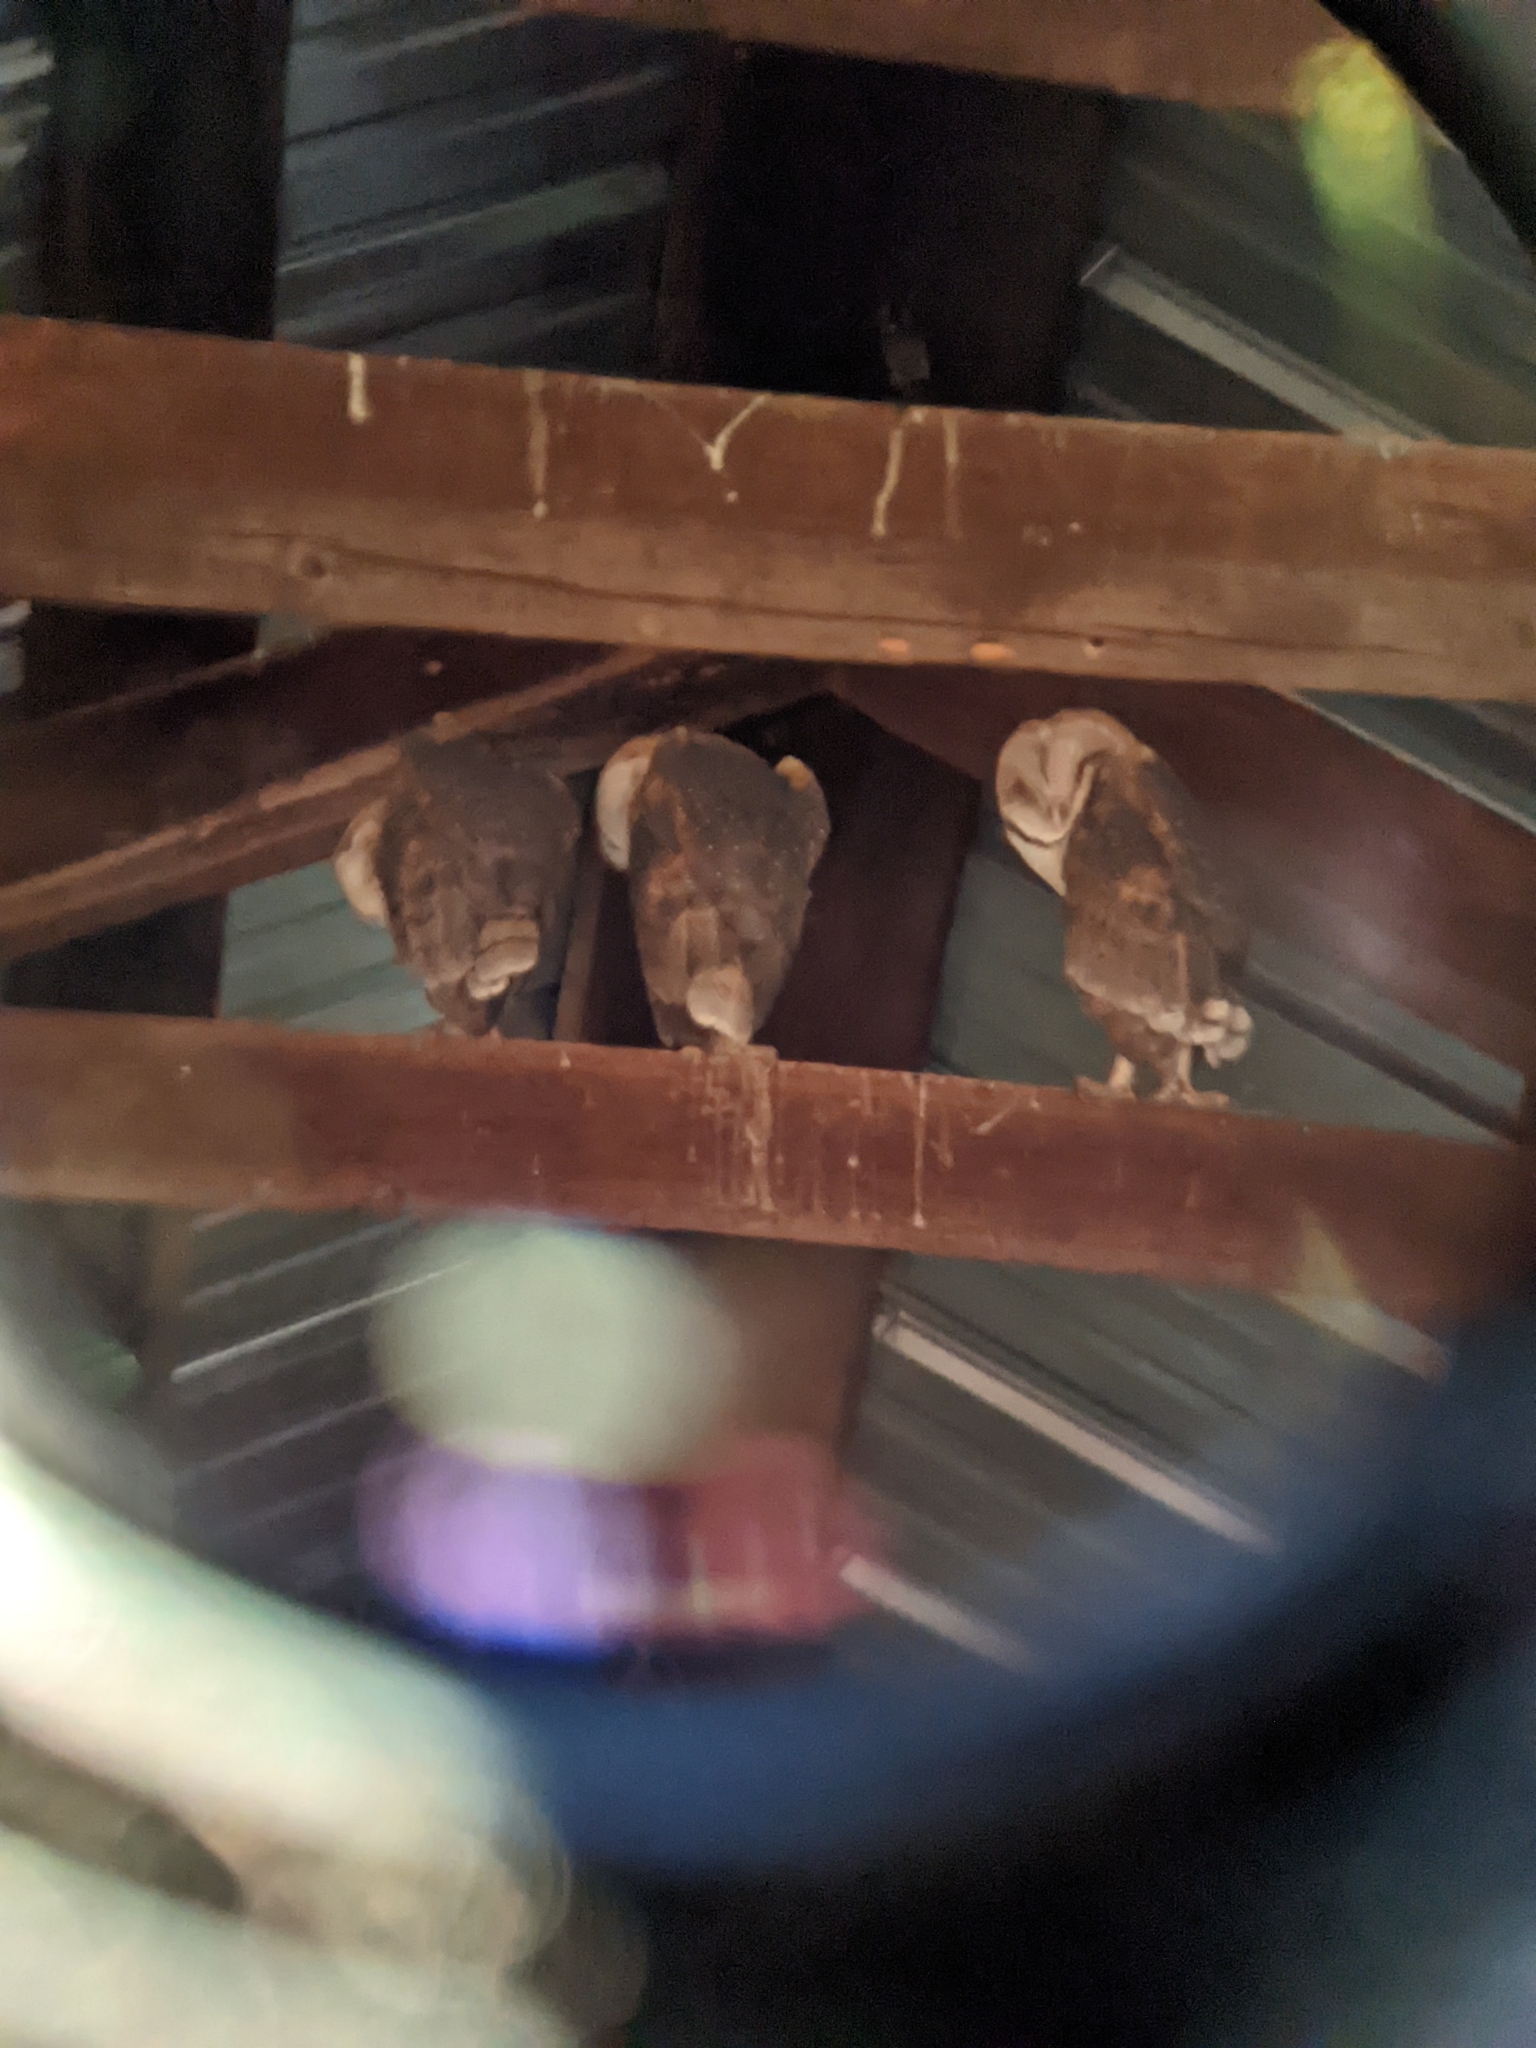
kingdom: Animalia
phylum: Chordata
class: Aves
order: Strigiformes
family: Tytonidae
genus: Tyto
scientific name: Tyto alba
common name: Barn owl
